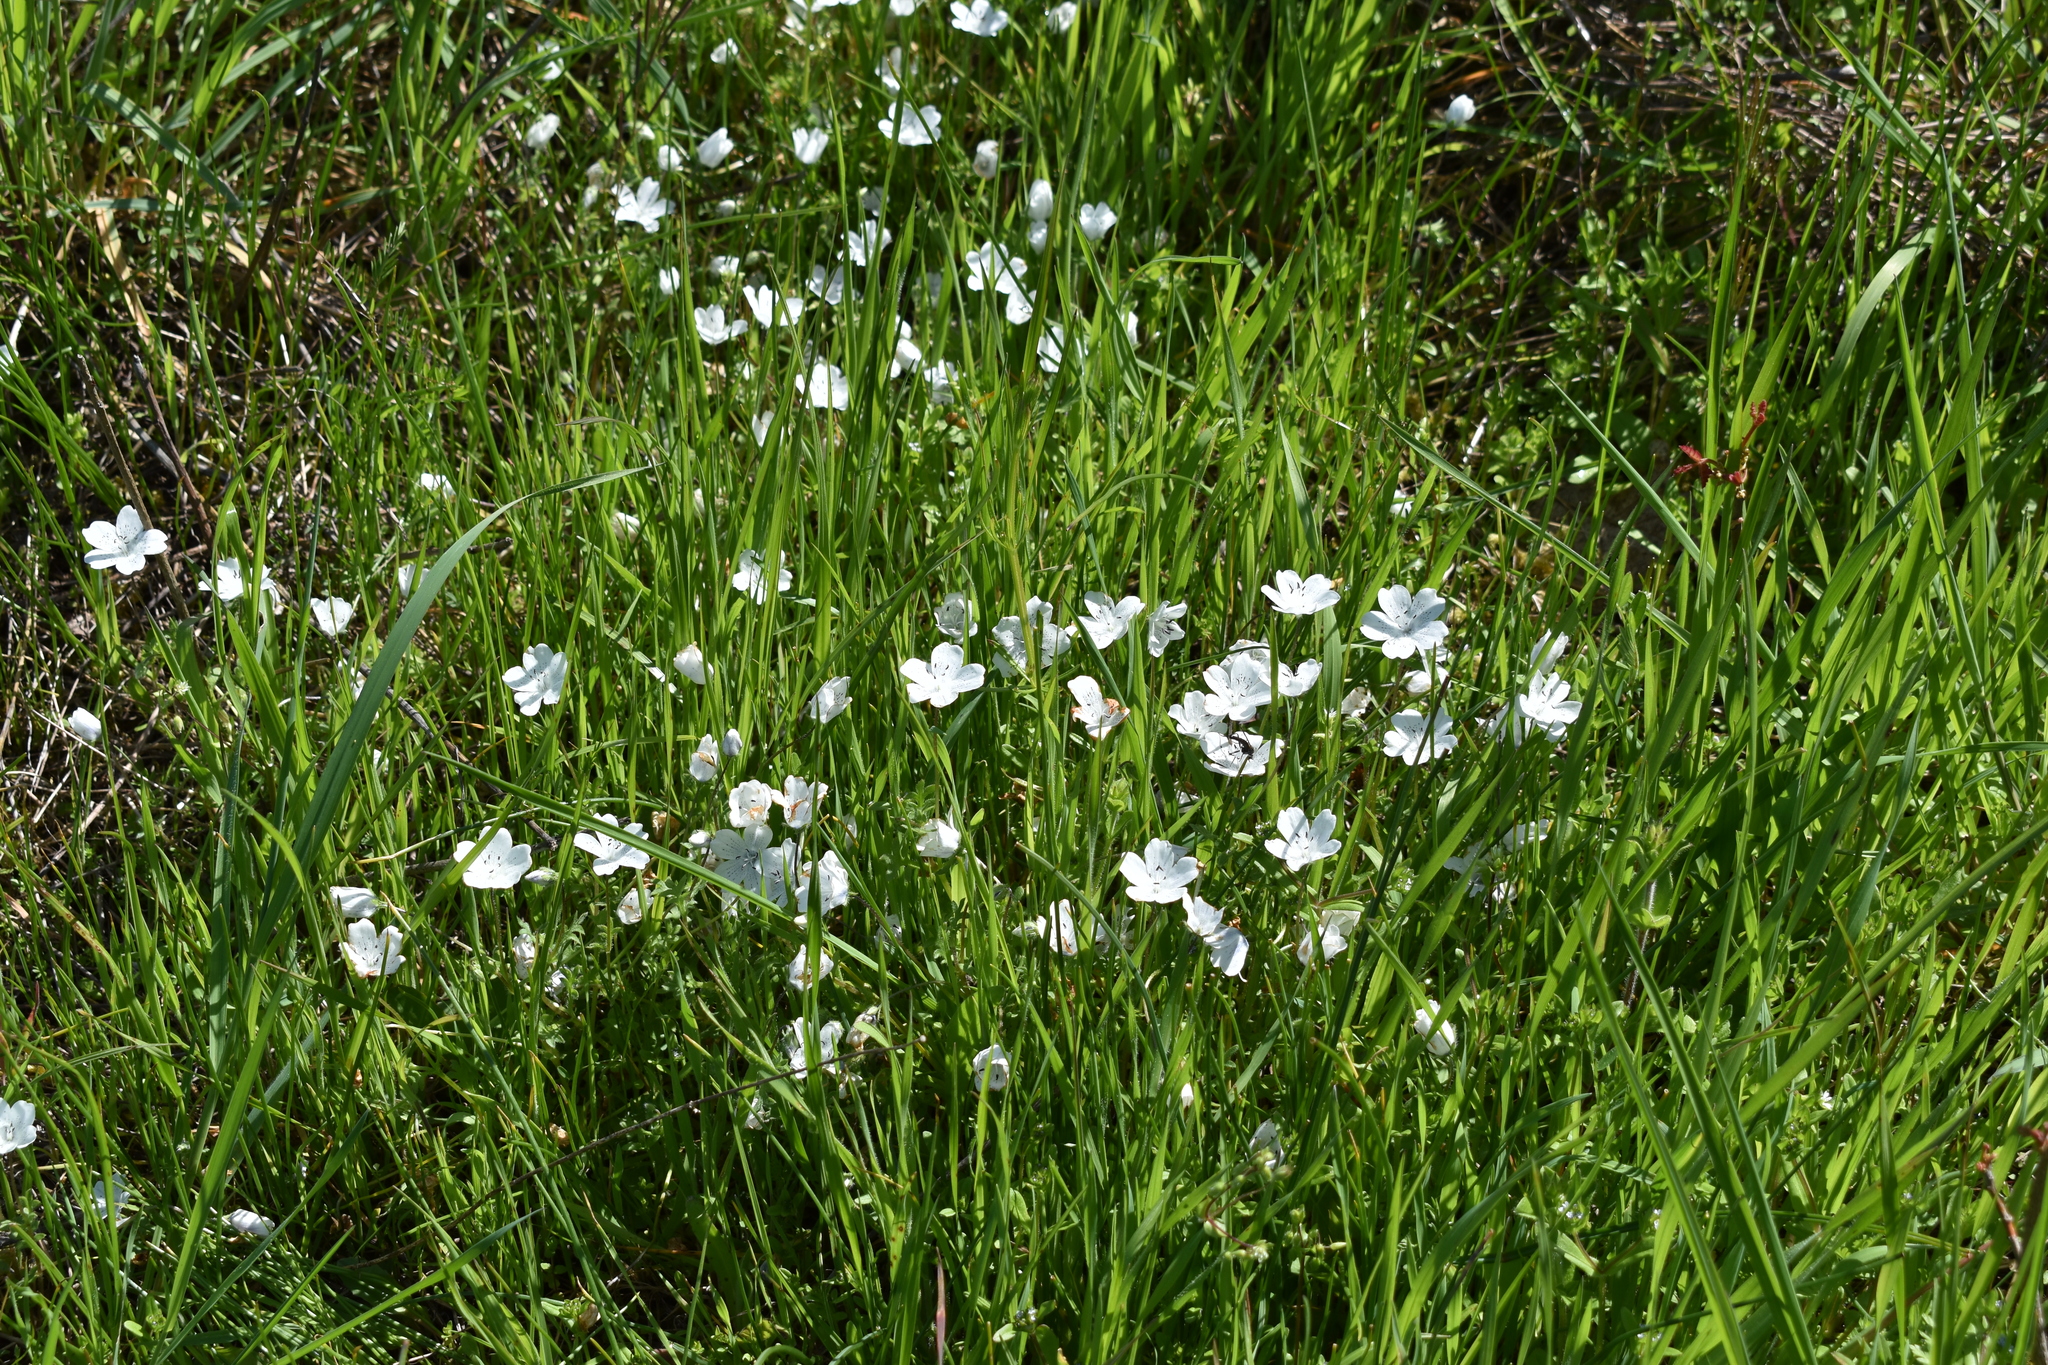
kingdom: Plantae
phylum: Tracheophyta
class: Magnoliopsida
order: Boraginales
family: Hydrophyllaceae
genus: Nemophila
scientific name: Nemophila menziesii
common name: Baby's-blue-eyes
